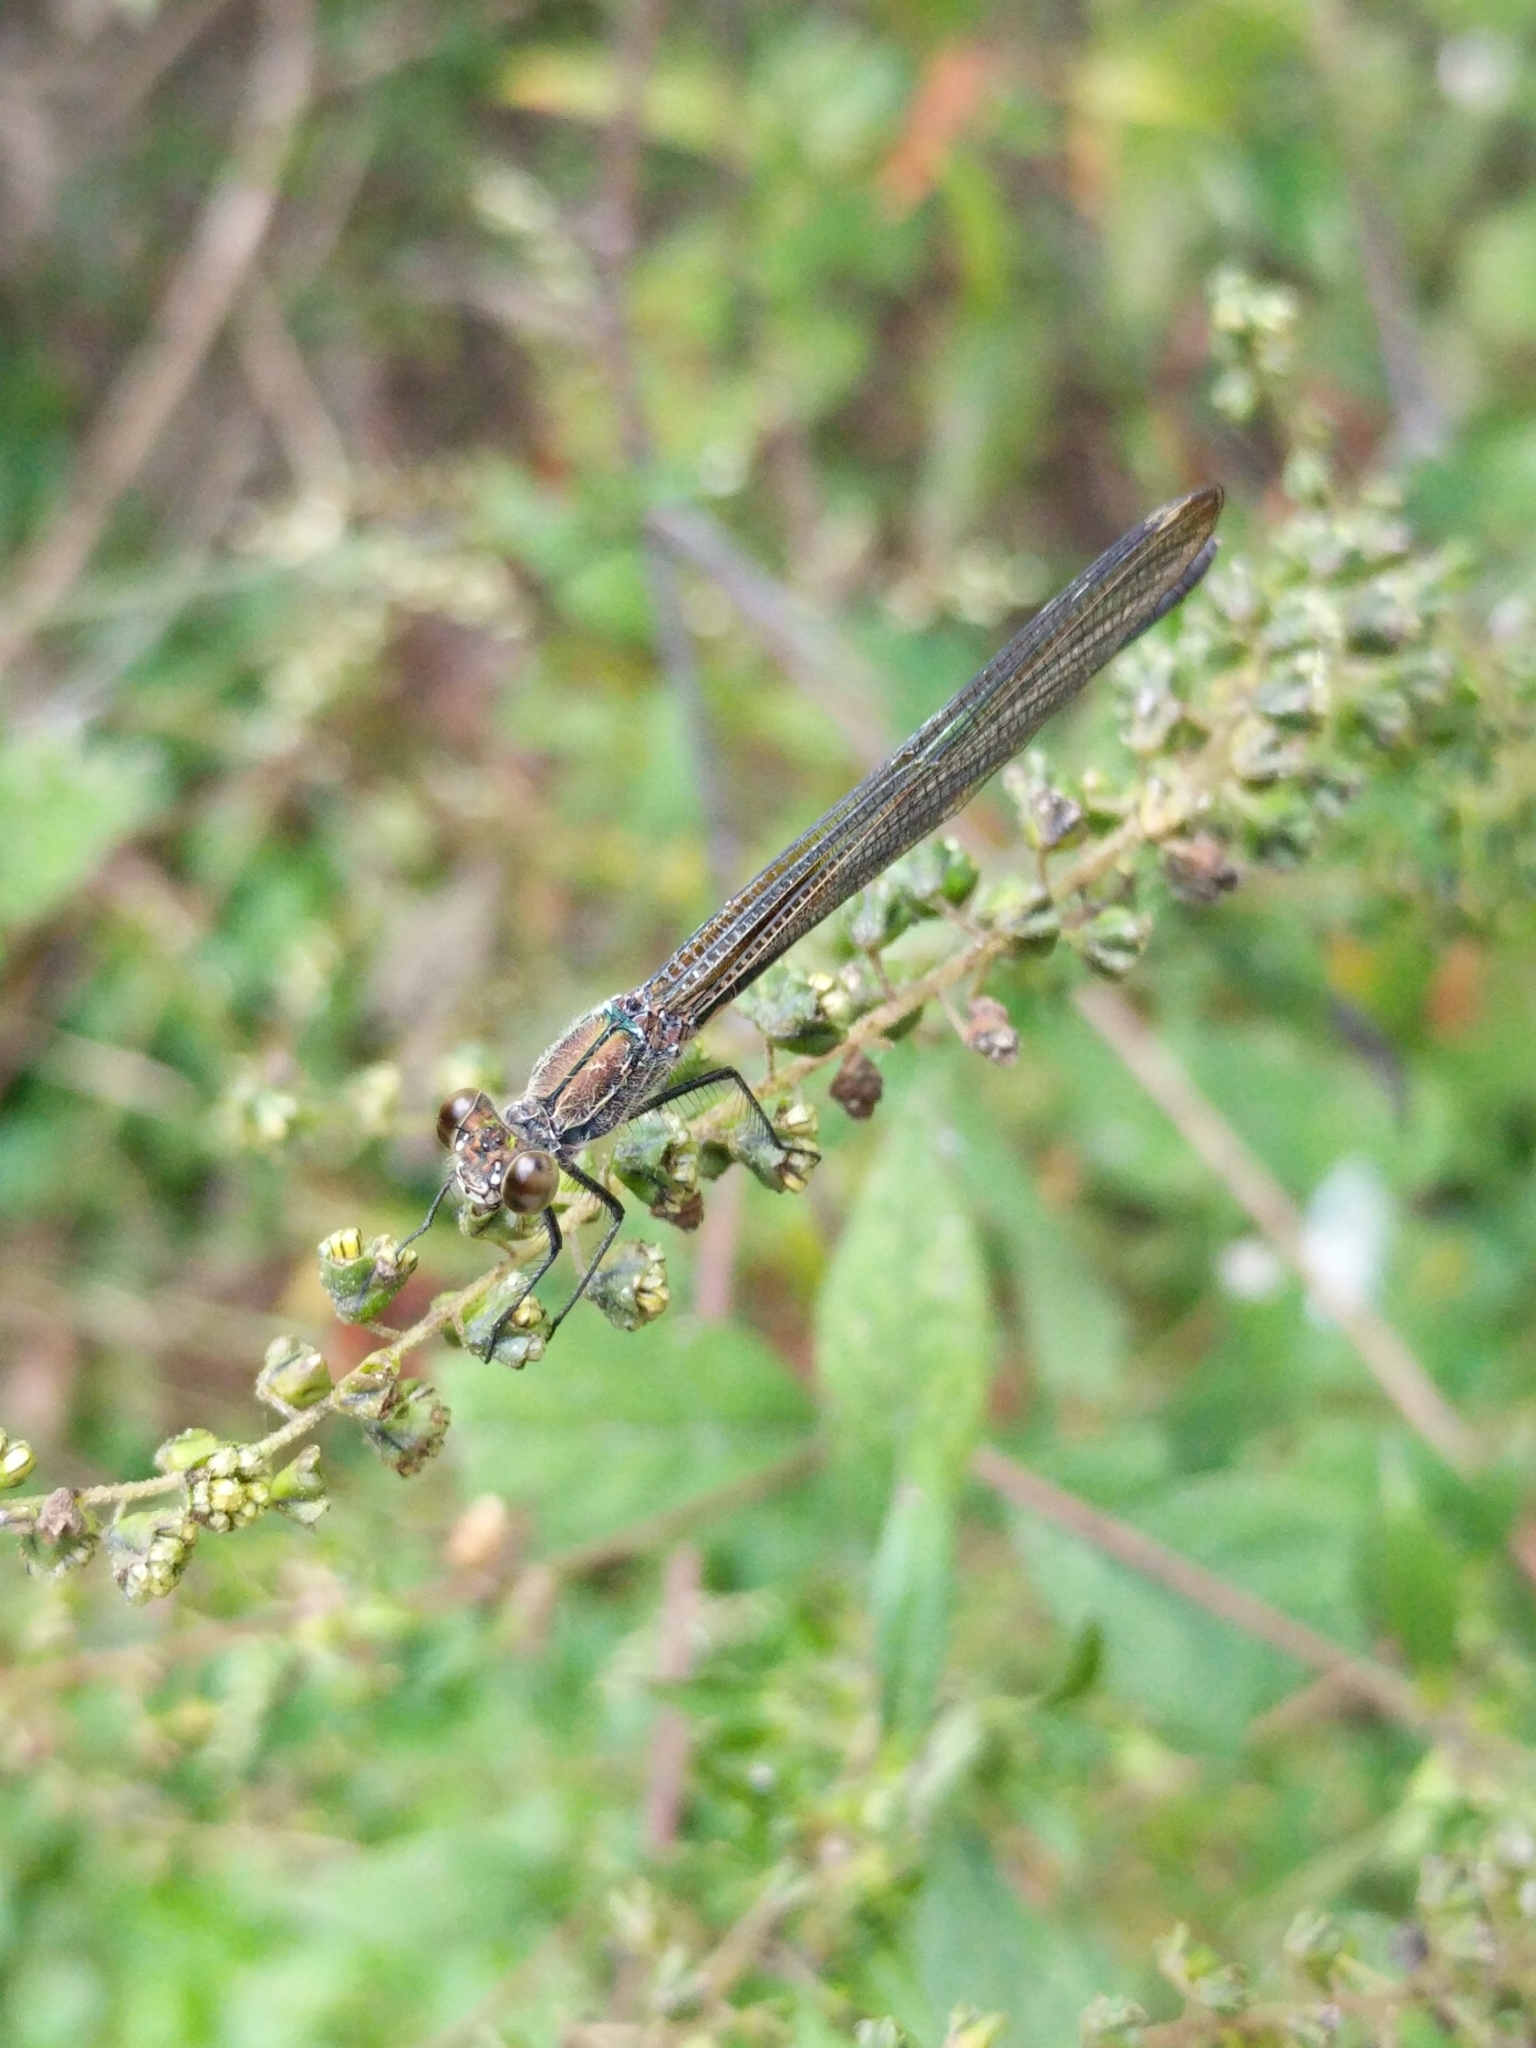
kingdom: Animalia
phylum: Arthropoda
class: Insecta
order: Odonata
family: Calopterygidae
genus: Hetaerina
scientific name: Hetaerina americana
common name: American rubyspot
